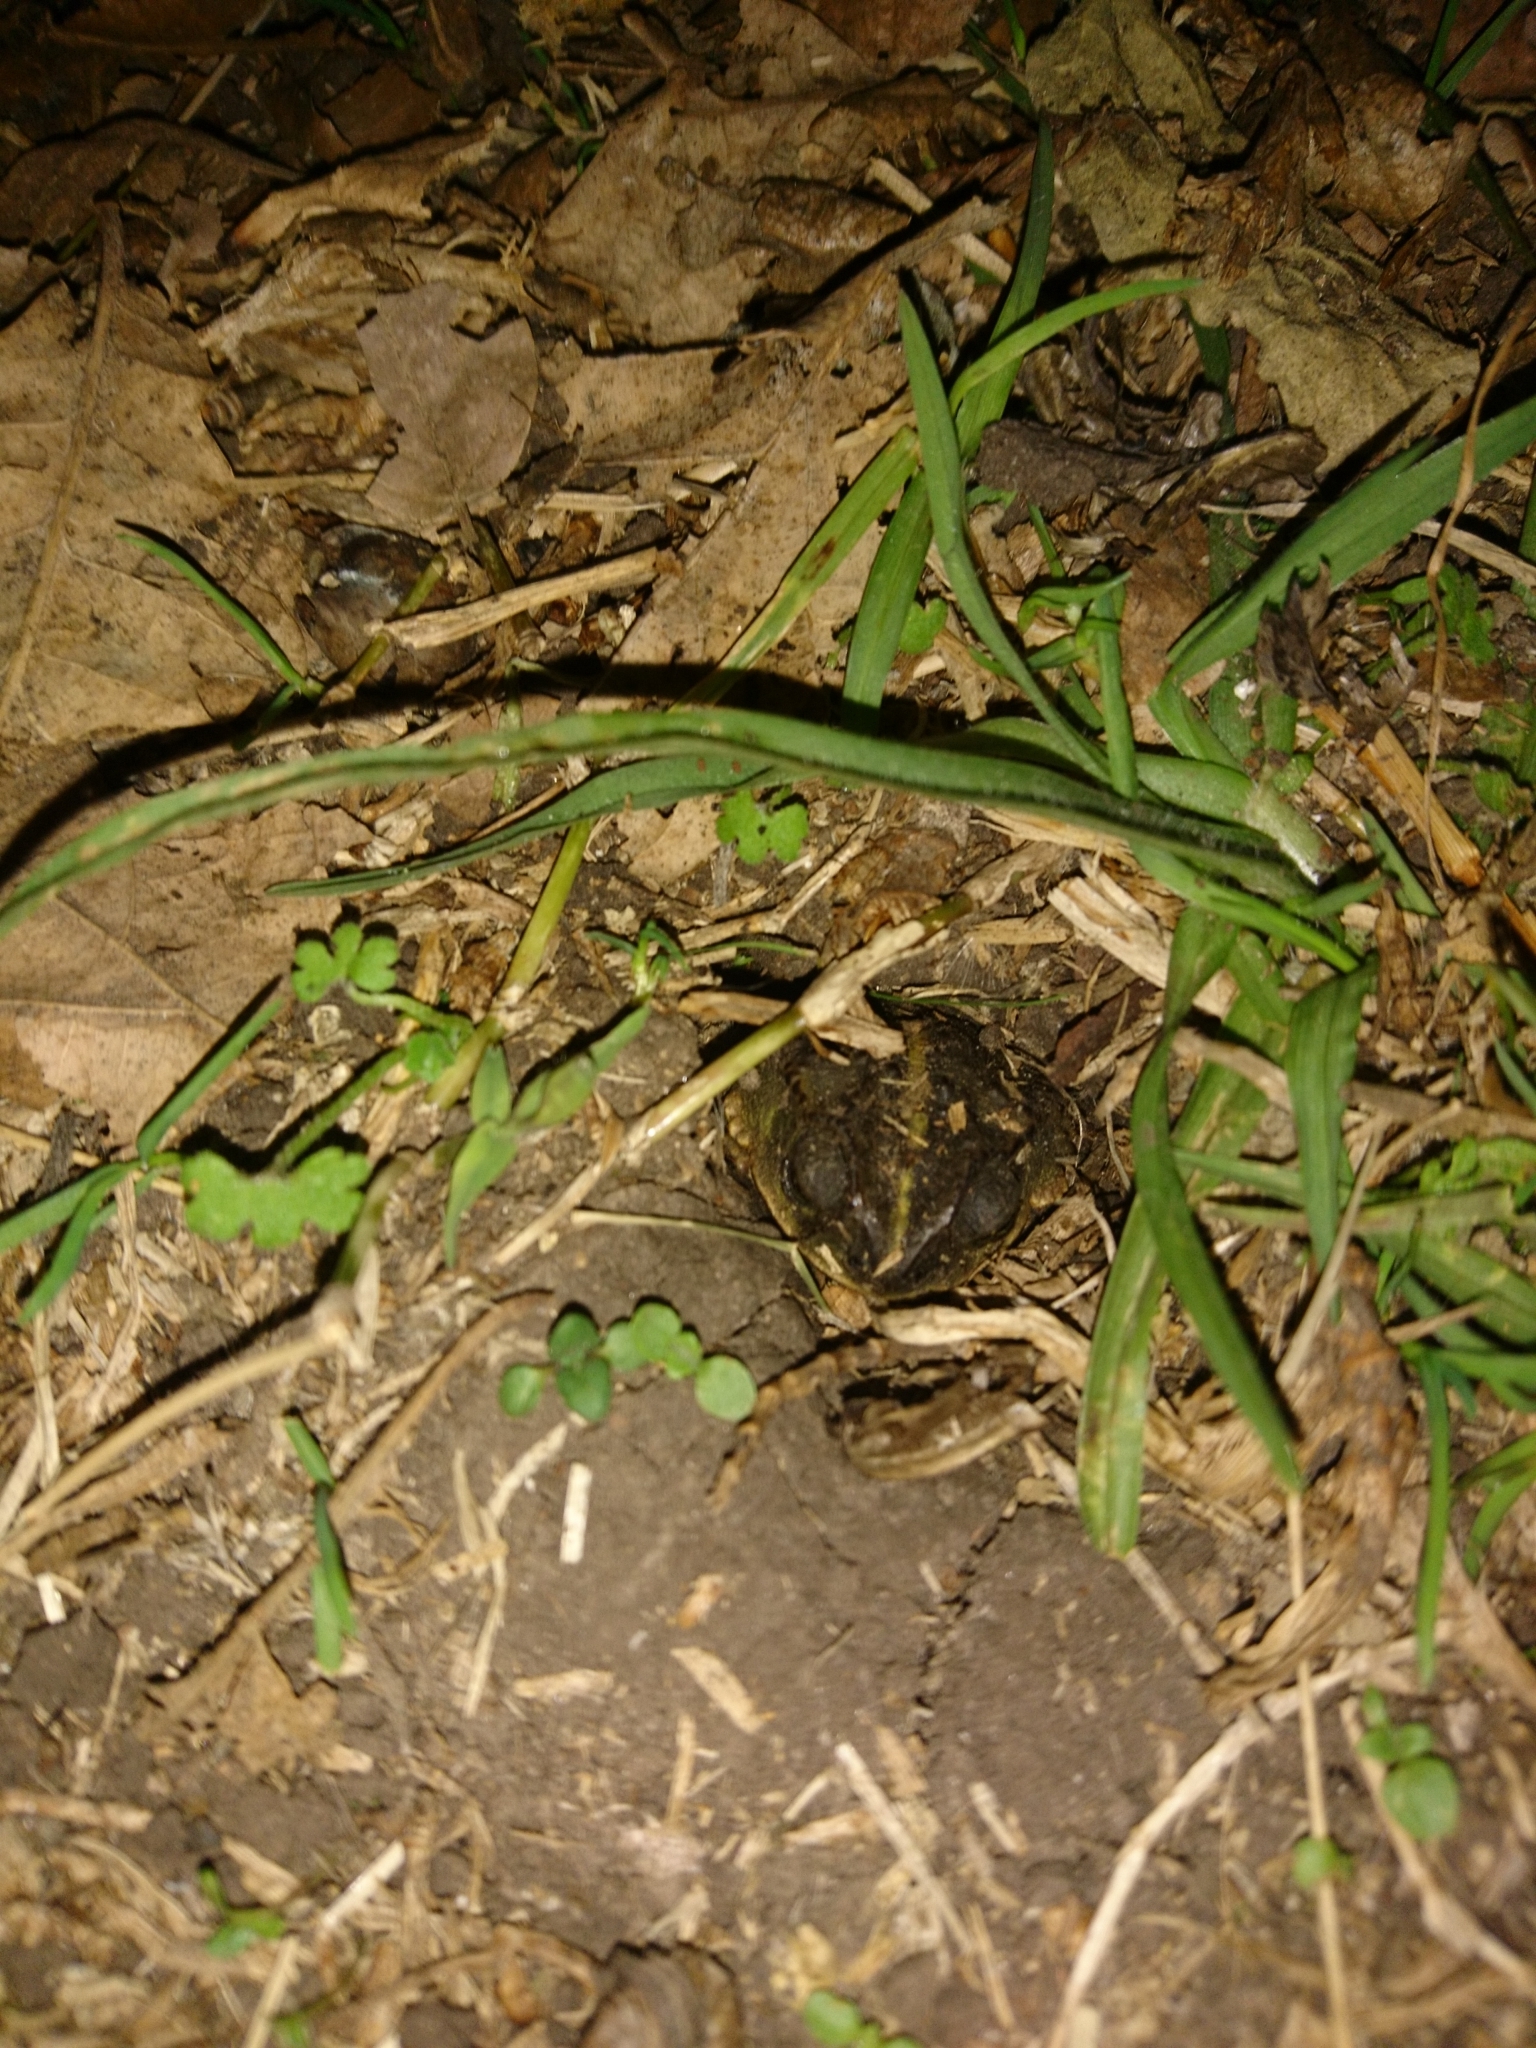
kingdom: Animalia
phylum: Chordata
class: Amphibia
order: Anura
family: Bufonidae
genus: Rhinella
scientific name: Rhinella dorbignyi
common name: D´orbigny’s toad
